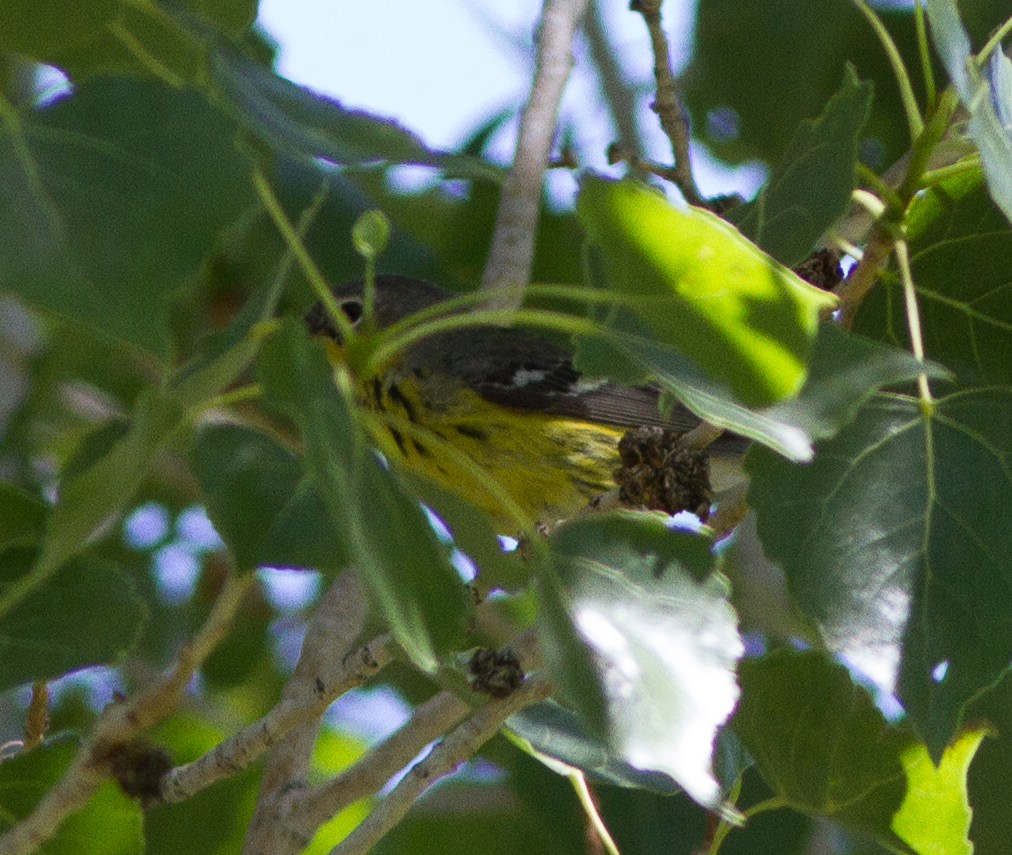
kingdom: Animalia
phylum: Chordata
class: Aves
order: Passeriformes
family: Parulidae
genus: Setophaga
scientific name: Setophaga magnolia
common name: Magnolia warbler
